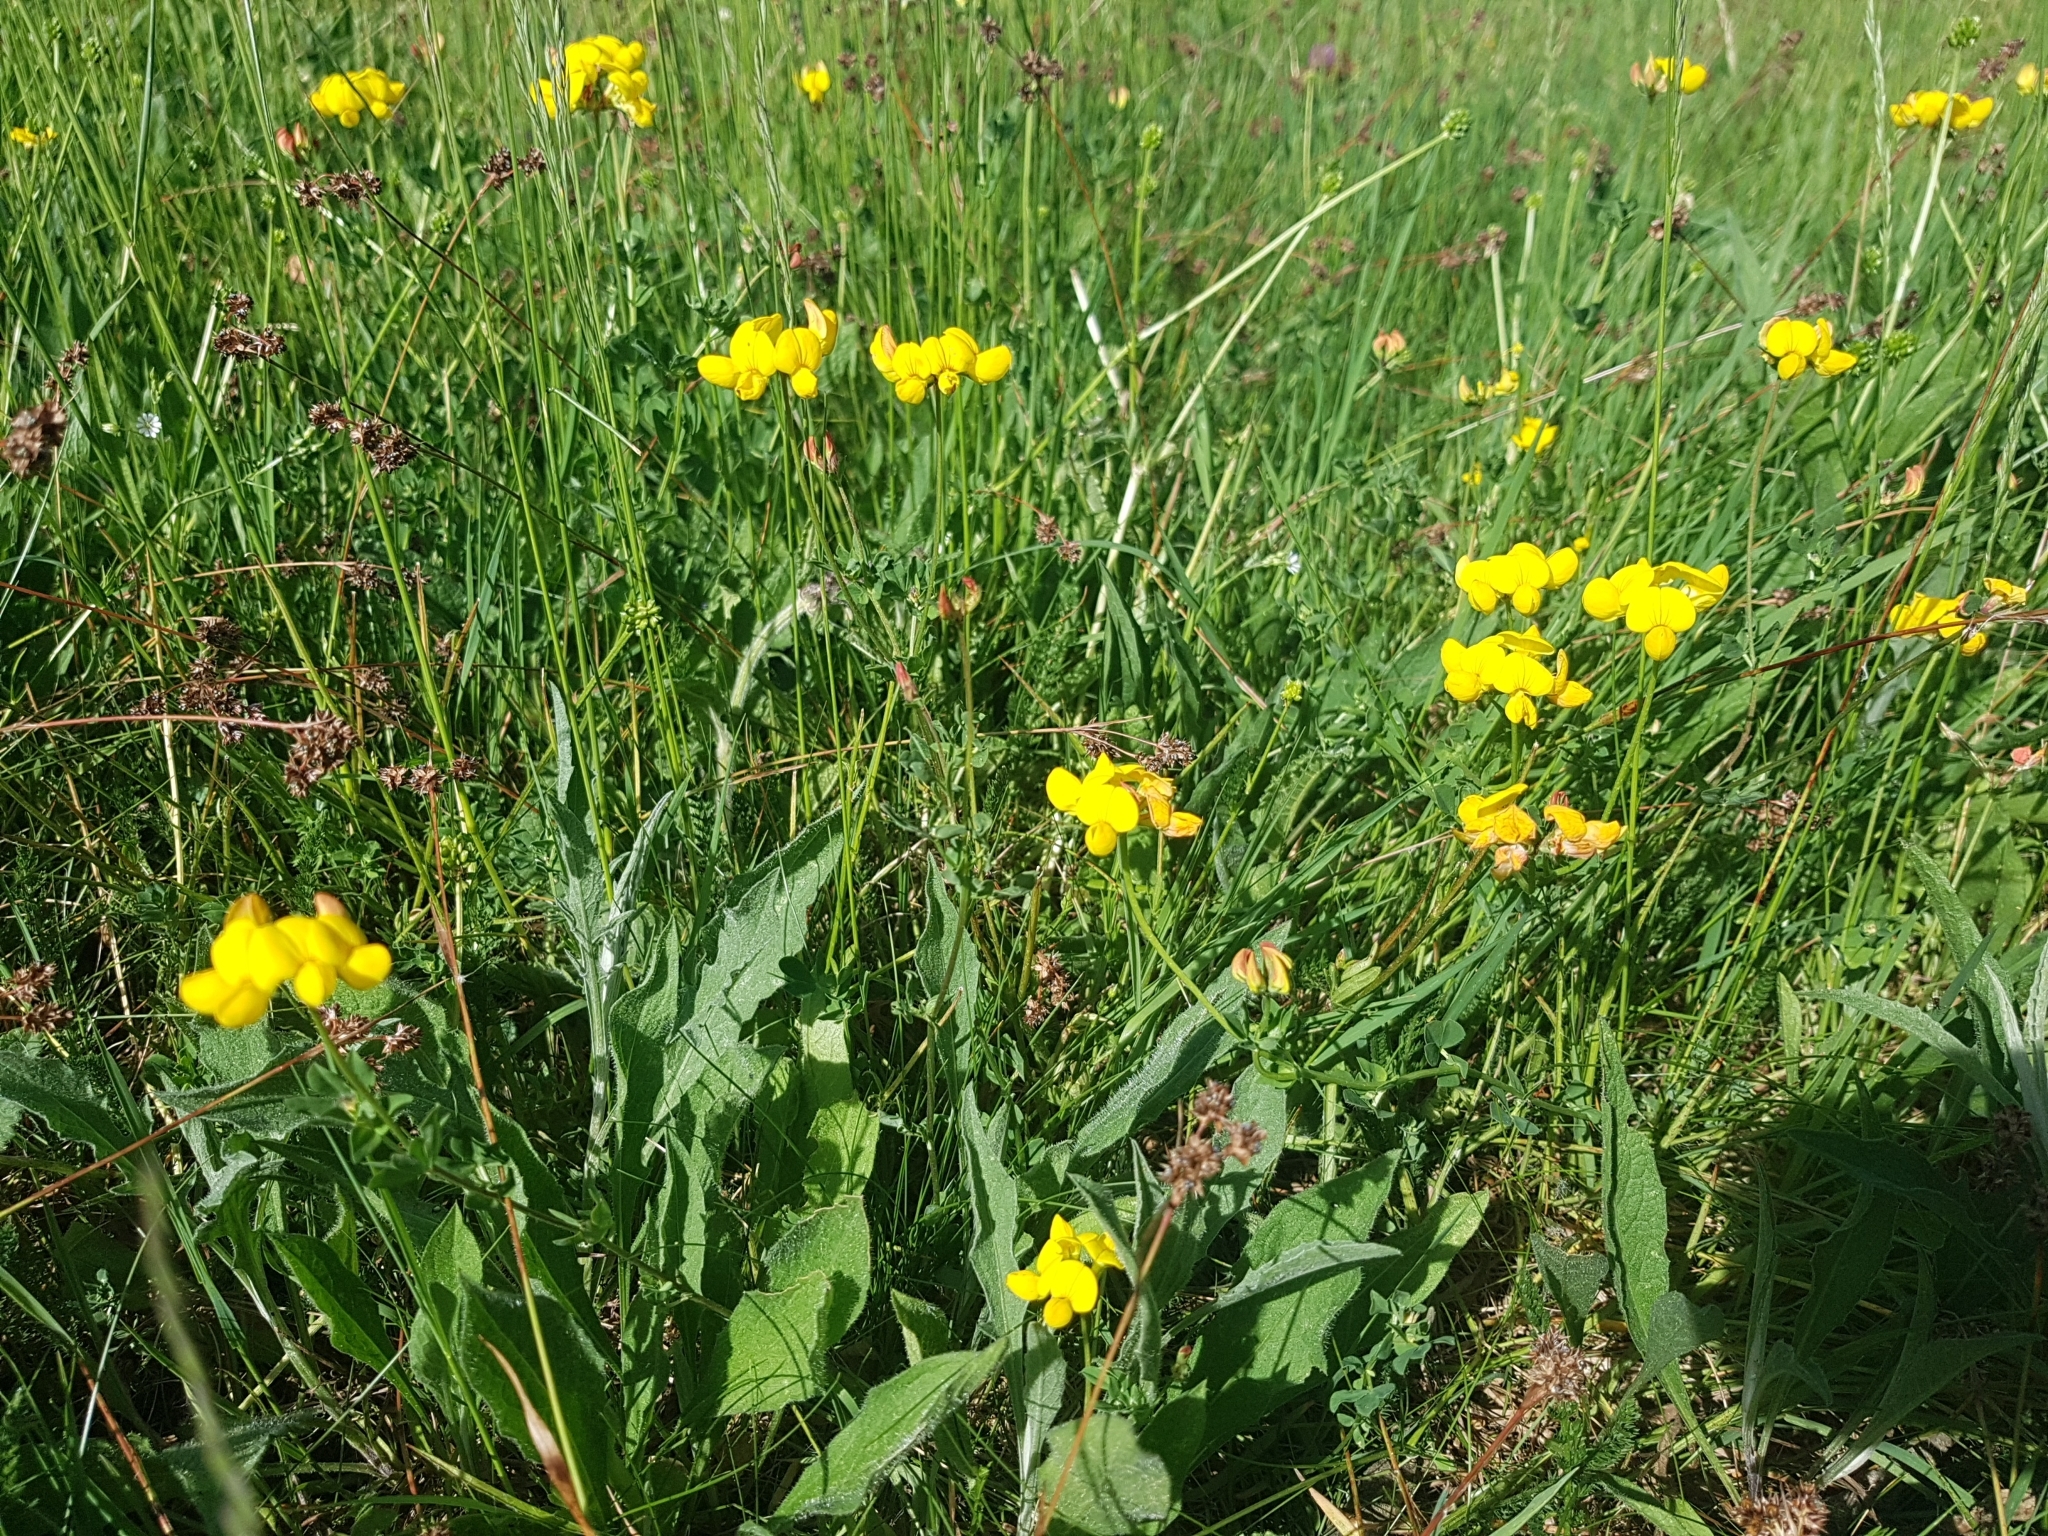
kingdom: Plantae
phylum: Tracheophyta
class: Magnoliopsida
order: Fabales
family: Fabaceae
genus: Lotus
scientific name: Lotus corniculatus
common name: Common bird's-foot-trefoil
